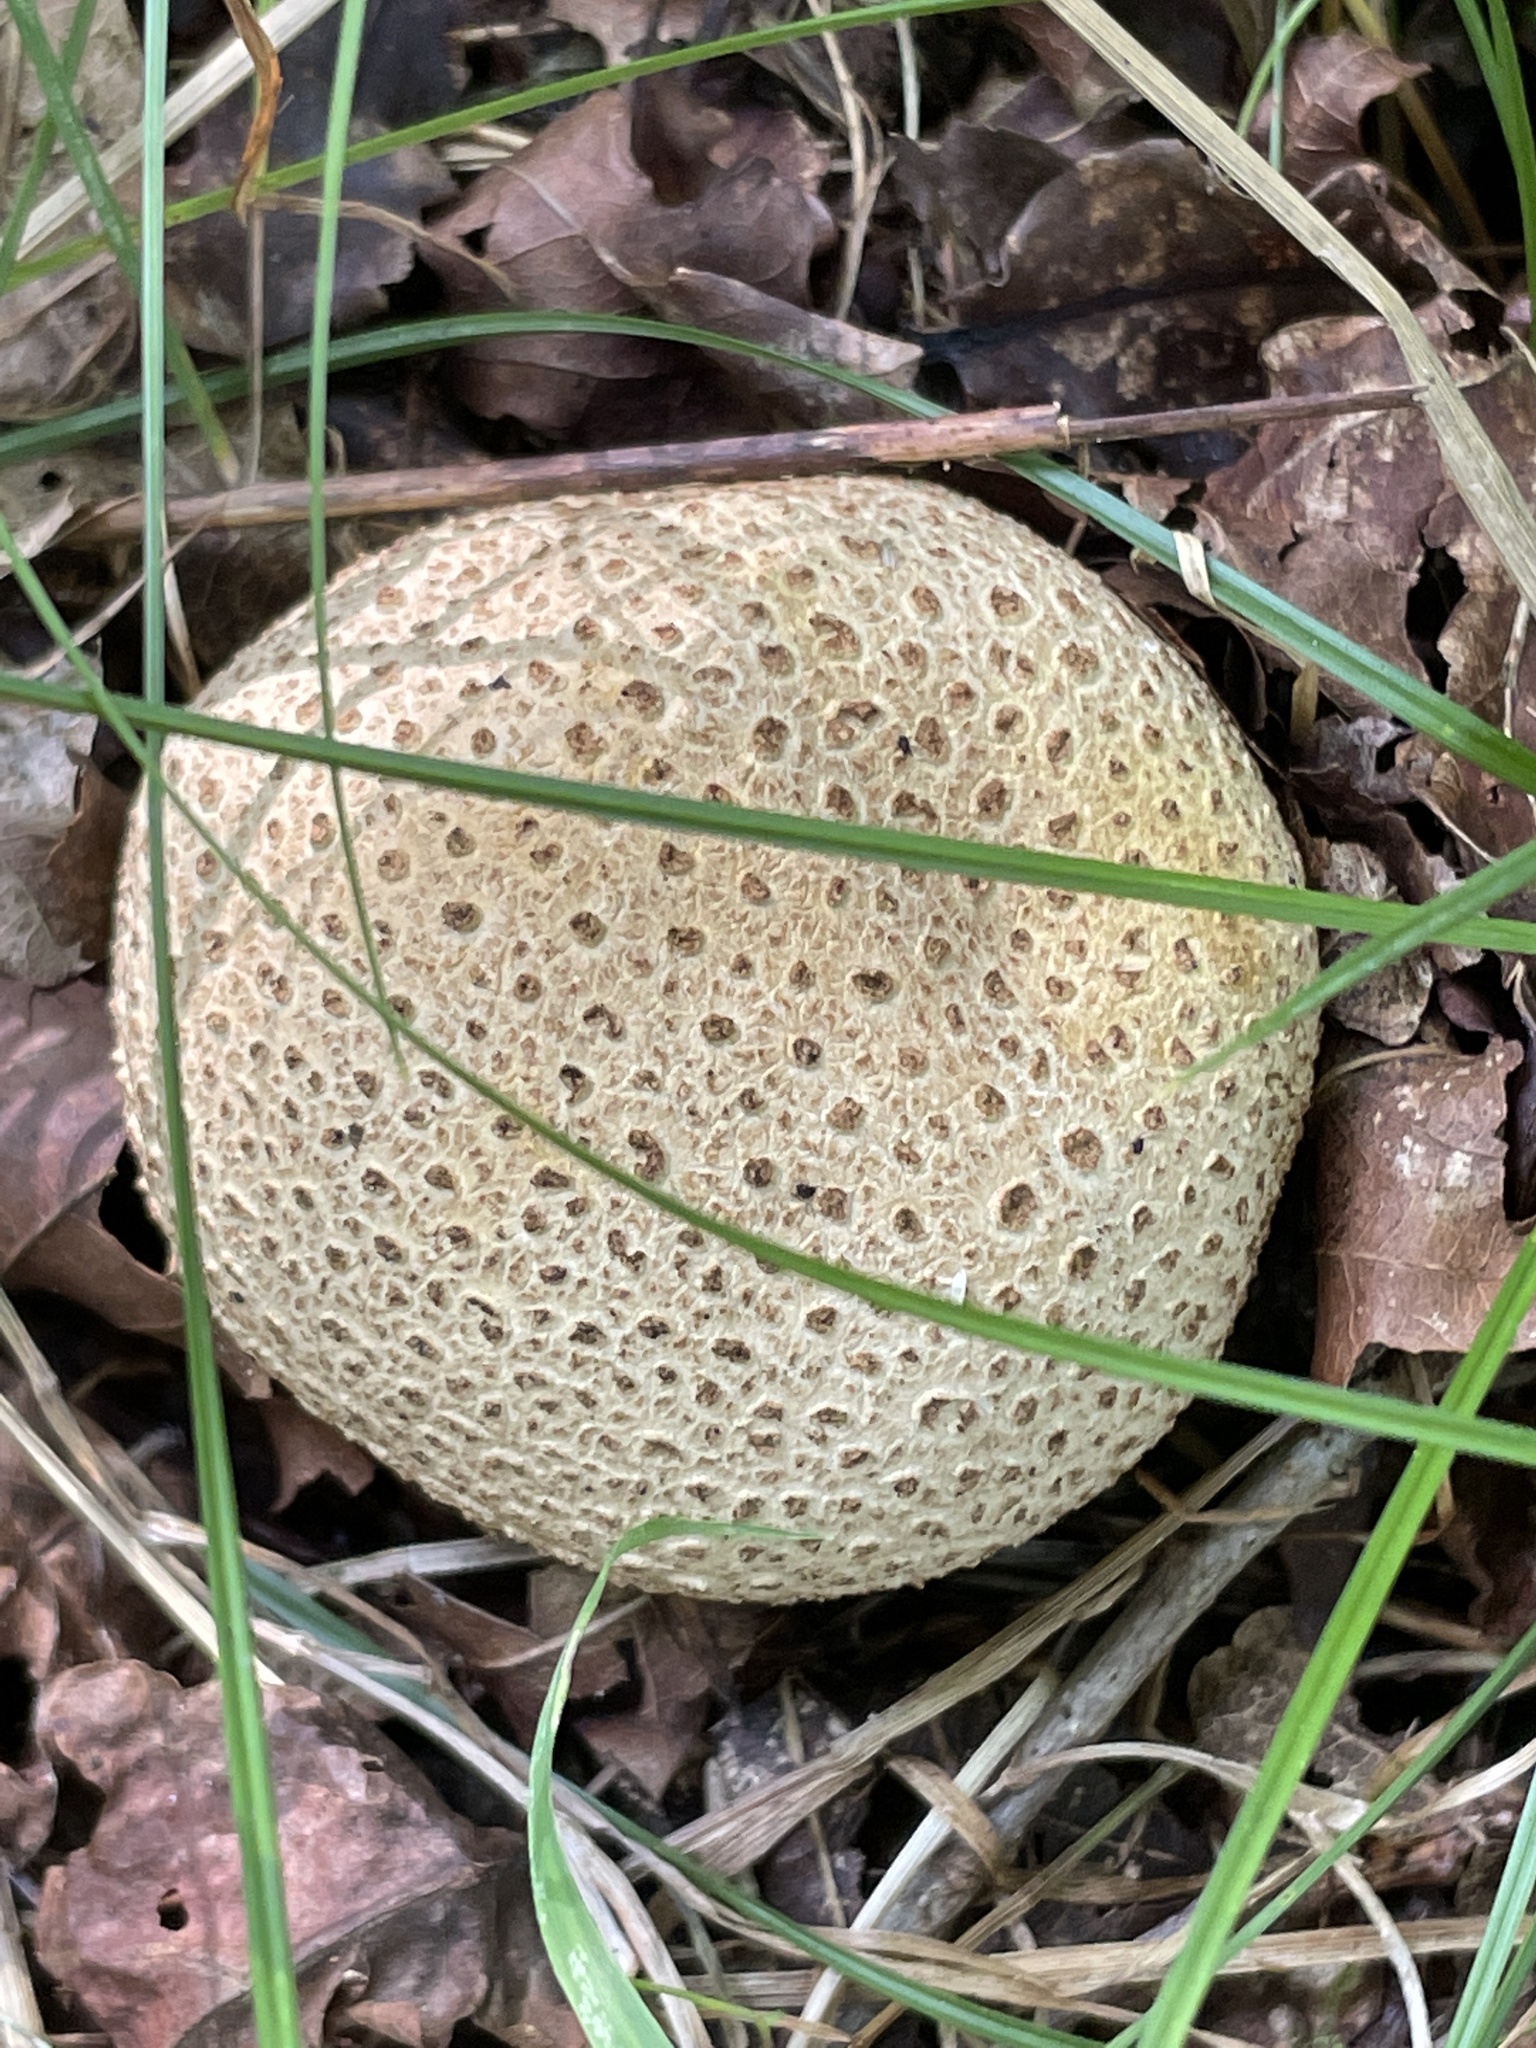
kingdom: Fungi
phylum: Basidiomycota
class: Agaricomycetes
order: Boletales
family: Sclerodermataceae
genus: Scleroderma
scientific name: Scleroderma citrinum
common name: Common earthball
